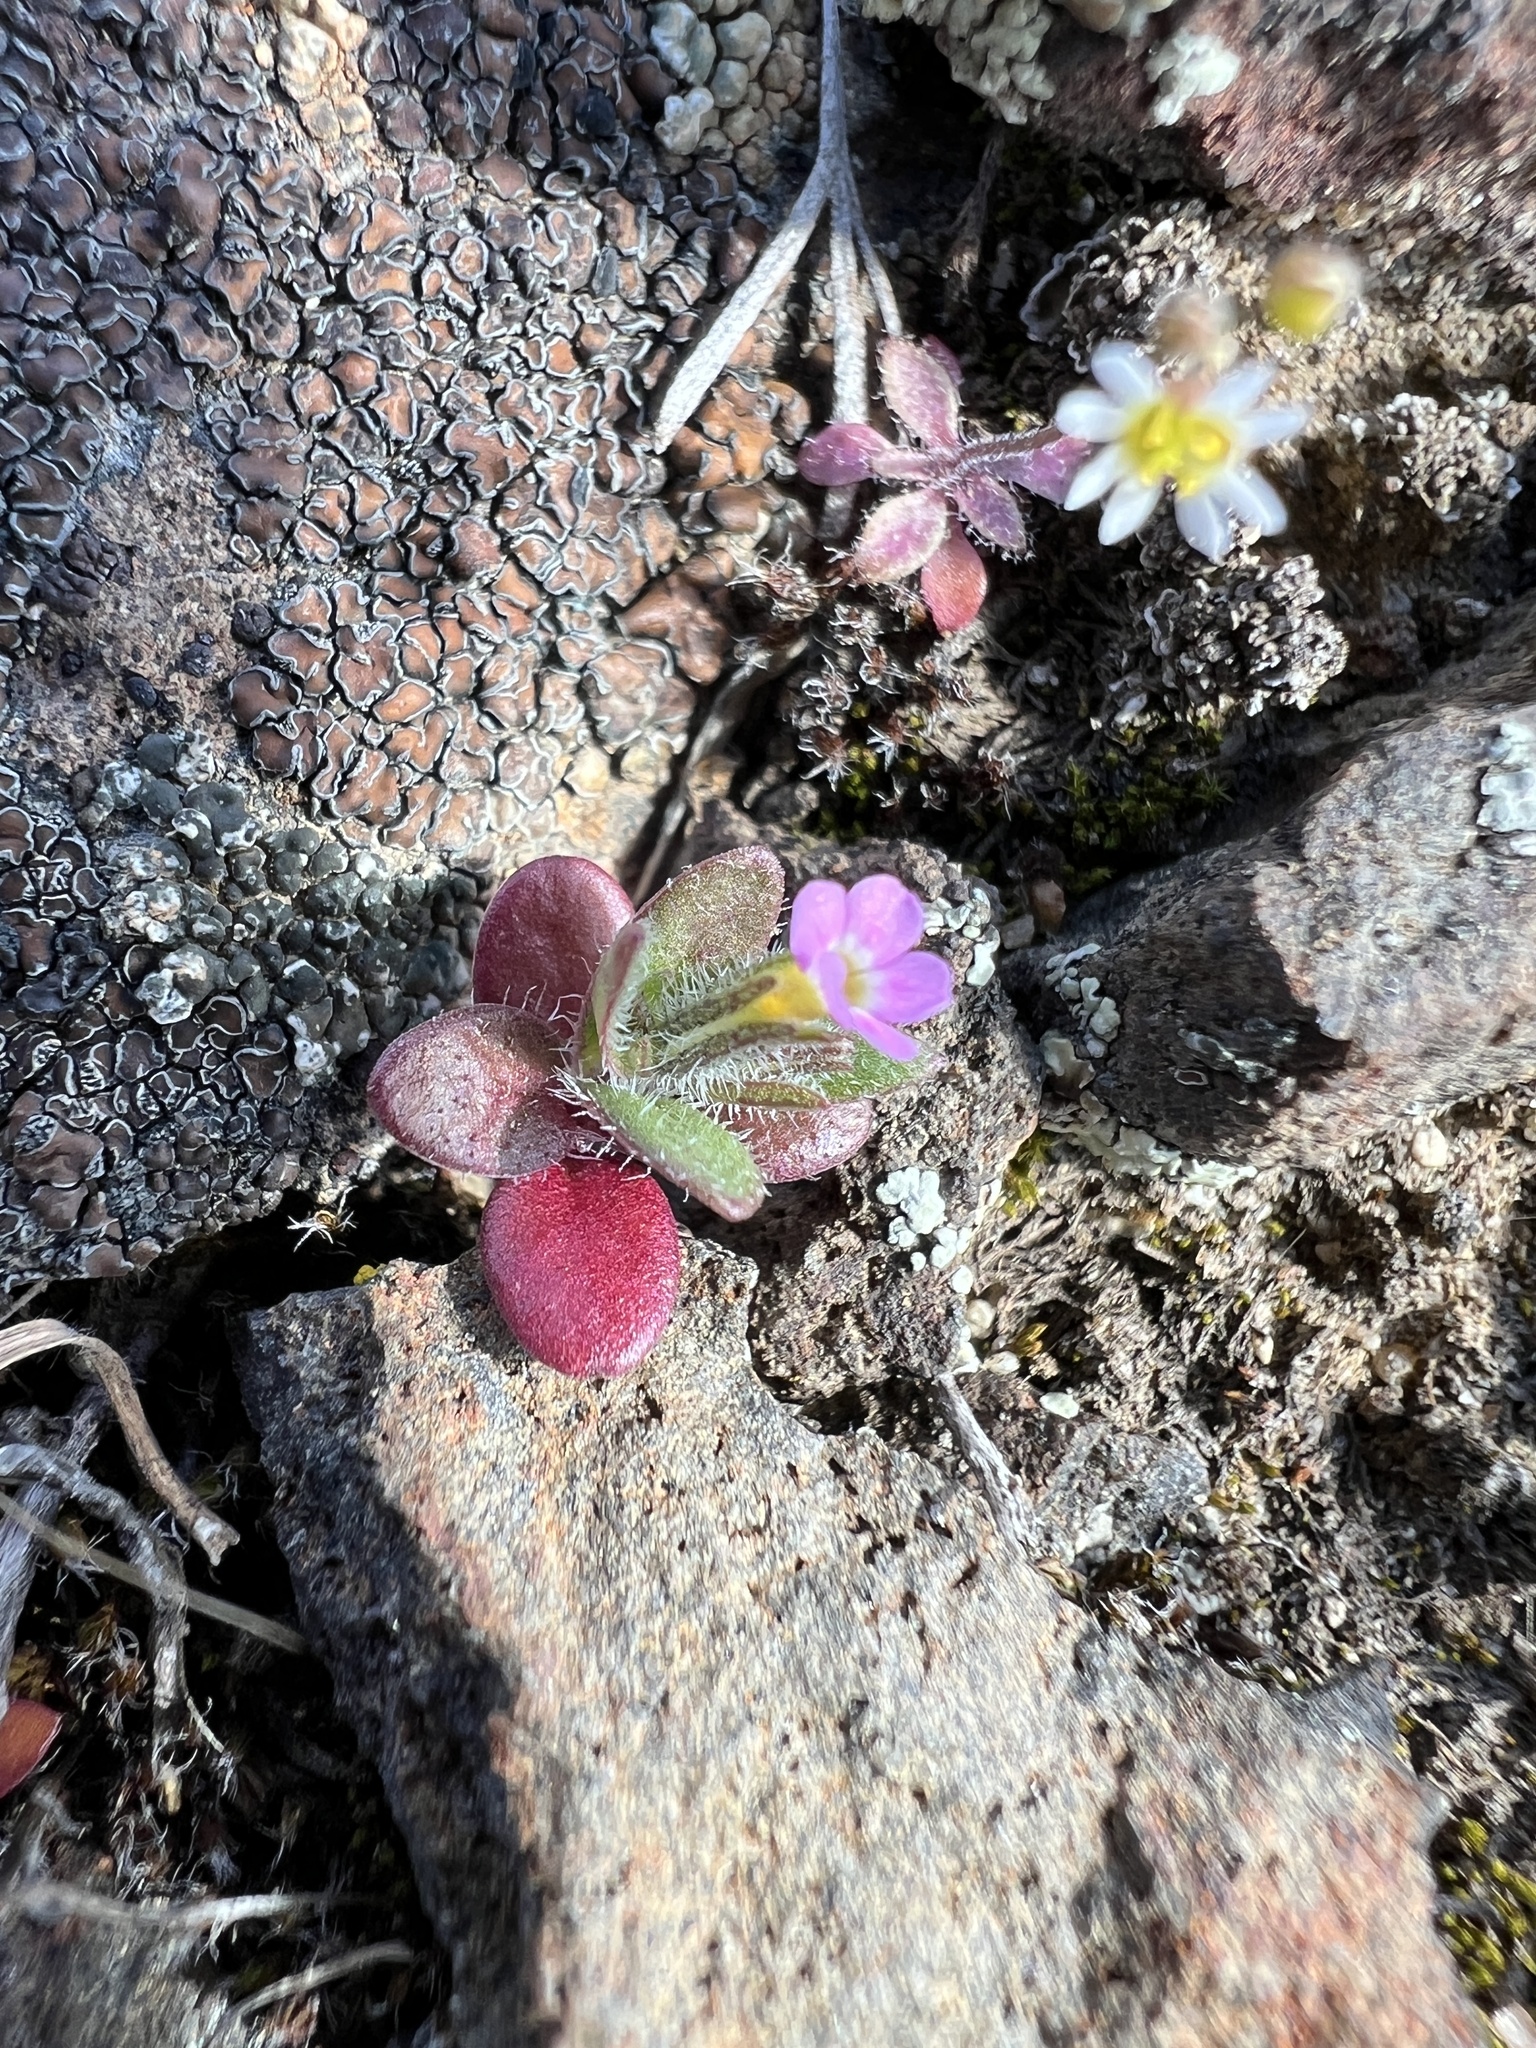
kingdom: Plantae
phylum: Tracheophyta
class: Magnoliopsida
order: Ericales
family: Polemoniaceae
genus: Phlox
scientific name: Phlox gracilis
